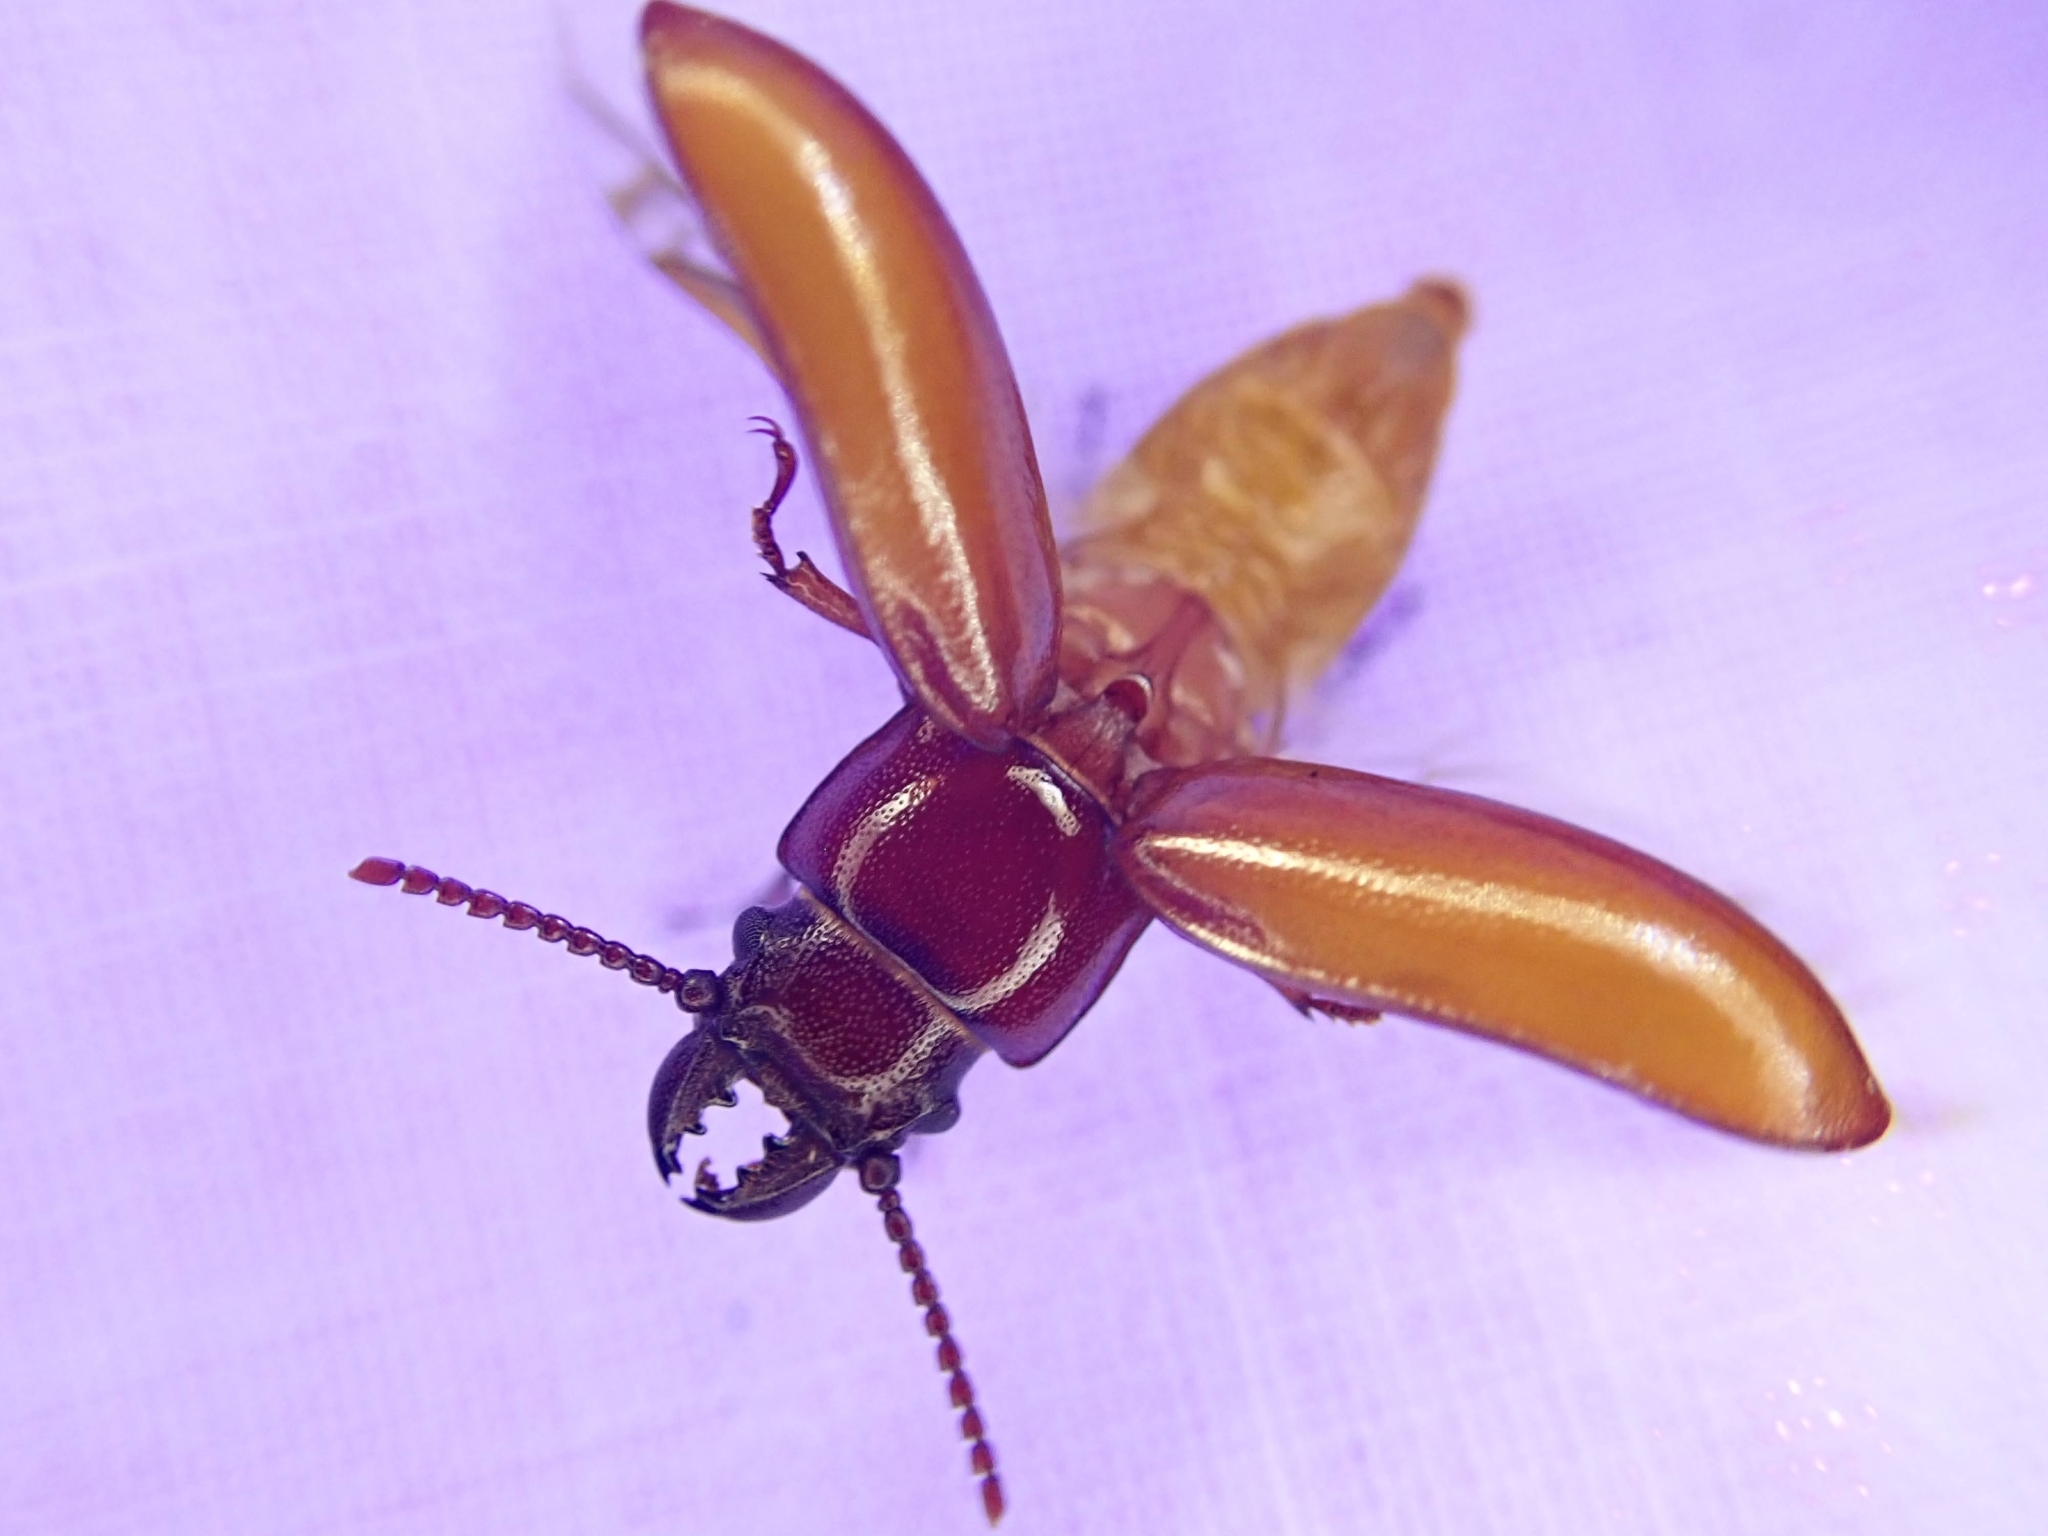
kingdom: Animalia
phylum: Arthropoda
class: Insecta
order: Coleoptera
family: Cerambycidae
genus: Neandra
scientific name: Neandra brunnea
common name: Pole borer
